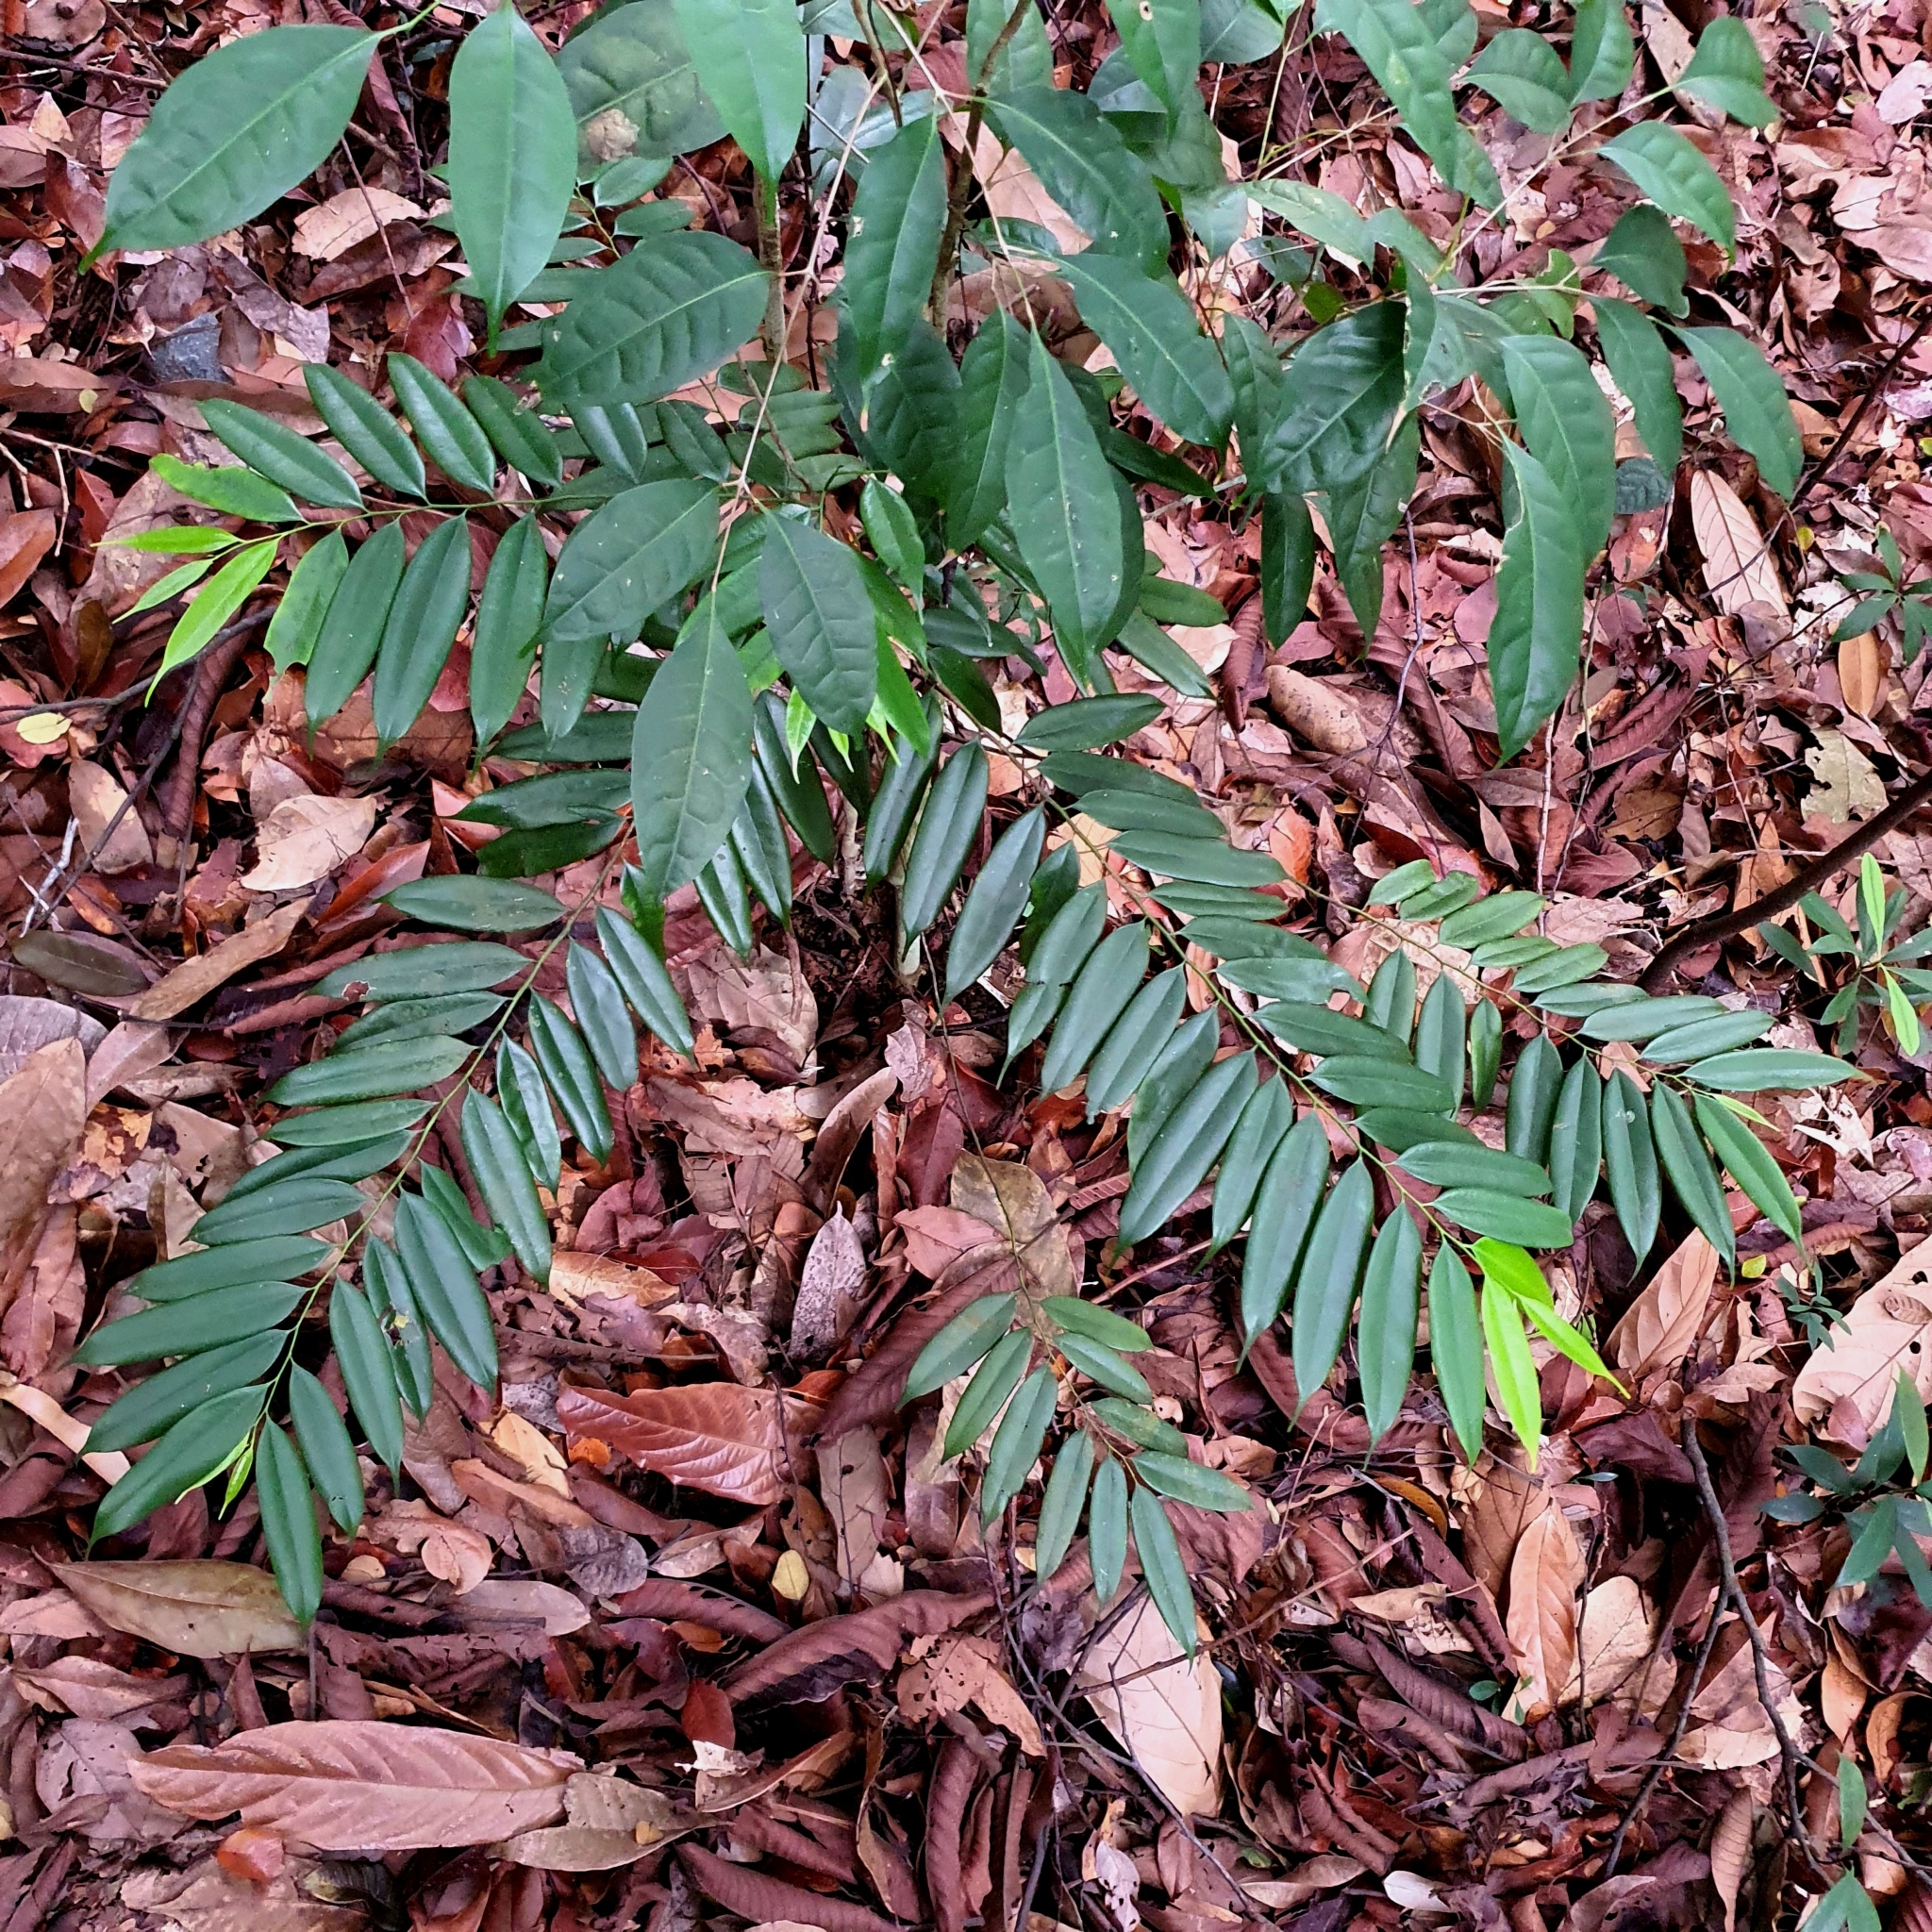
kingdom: Plantae
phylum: Tracheophyta
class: Magnoliopsida
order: Magnoliales
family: Annonaceae
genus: Maasia
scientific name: Maasia hypoleuca
